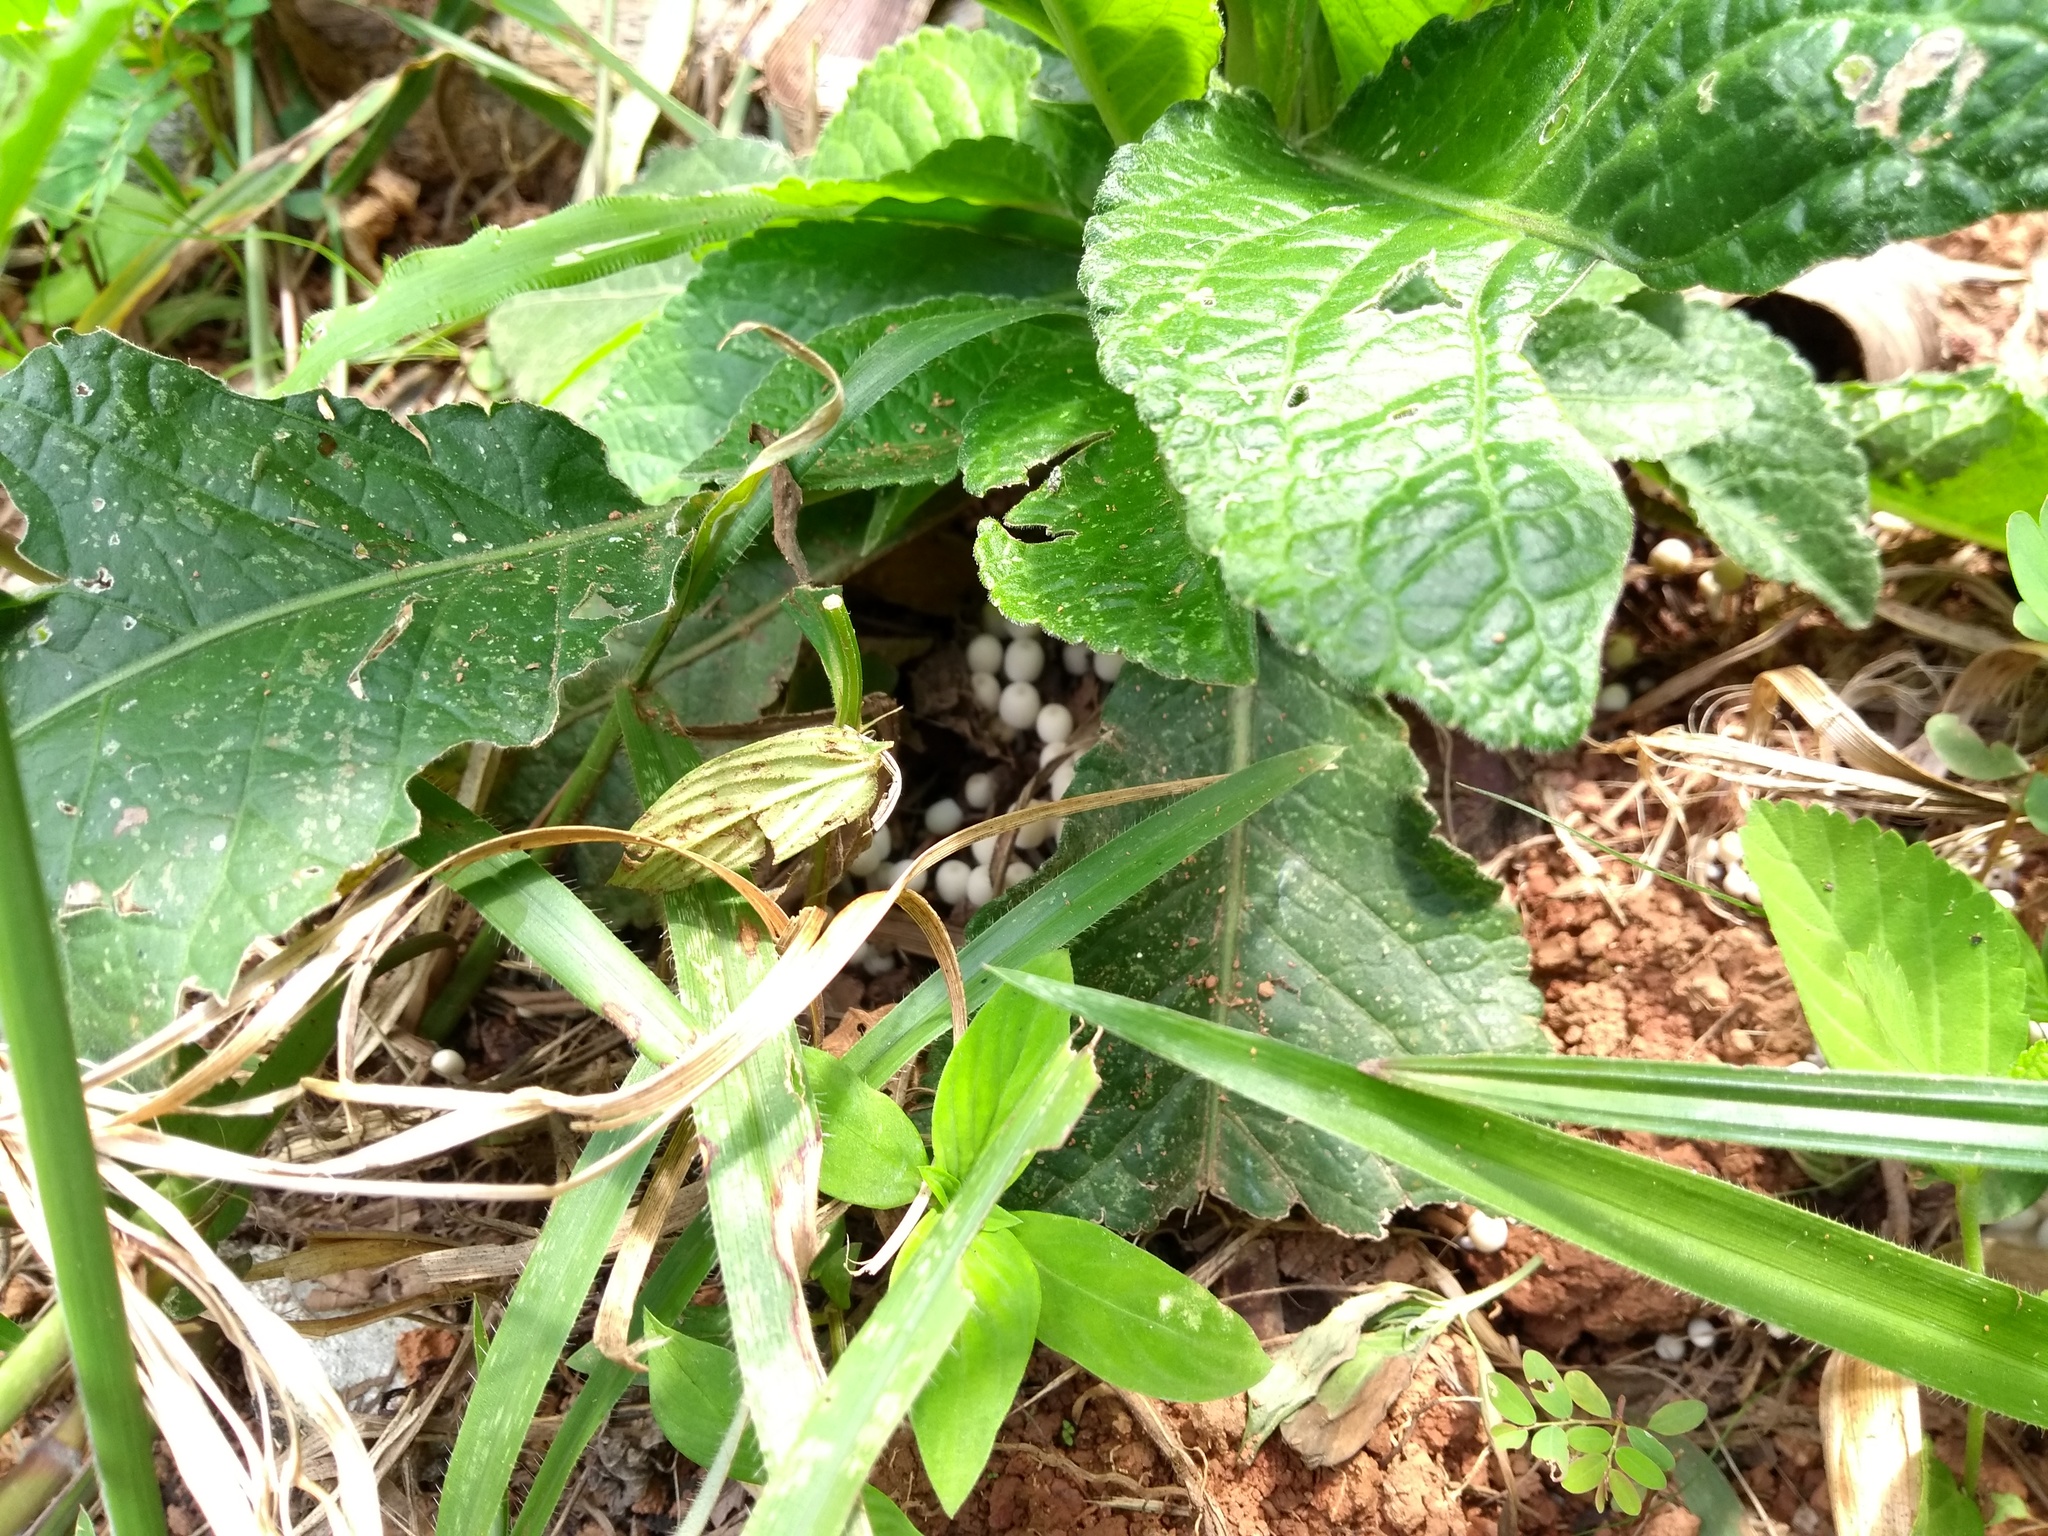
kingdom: Fungi
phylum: Basidiomycota
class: Agaricomycetes
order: Agaricales
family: Psathyrellaceae
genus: Coprinellus
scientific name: Coprinellus disseminatus
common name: Fairies' bonnets
